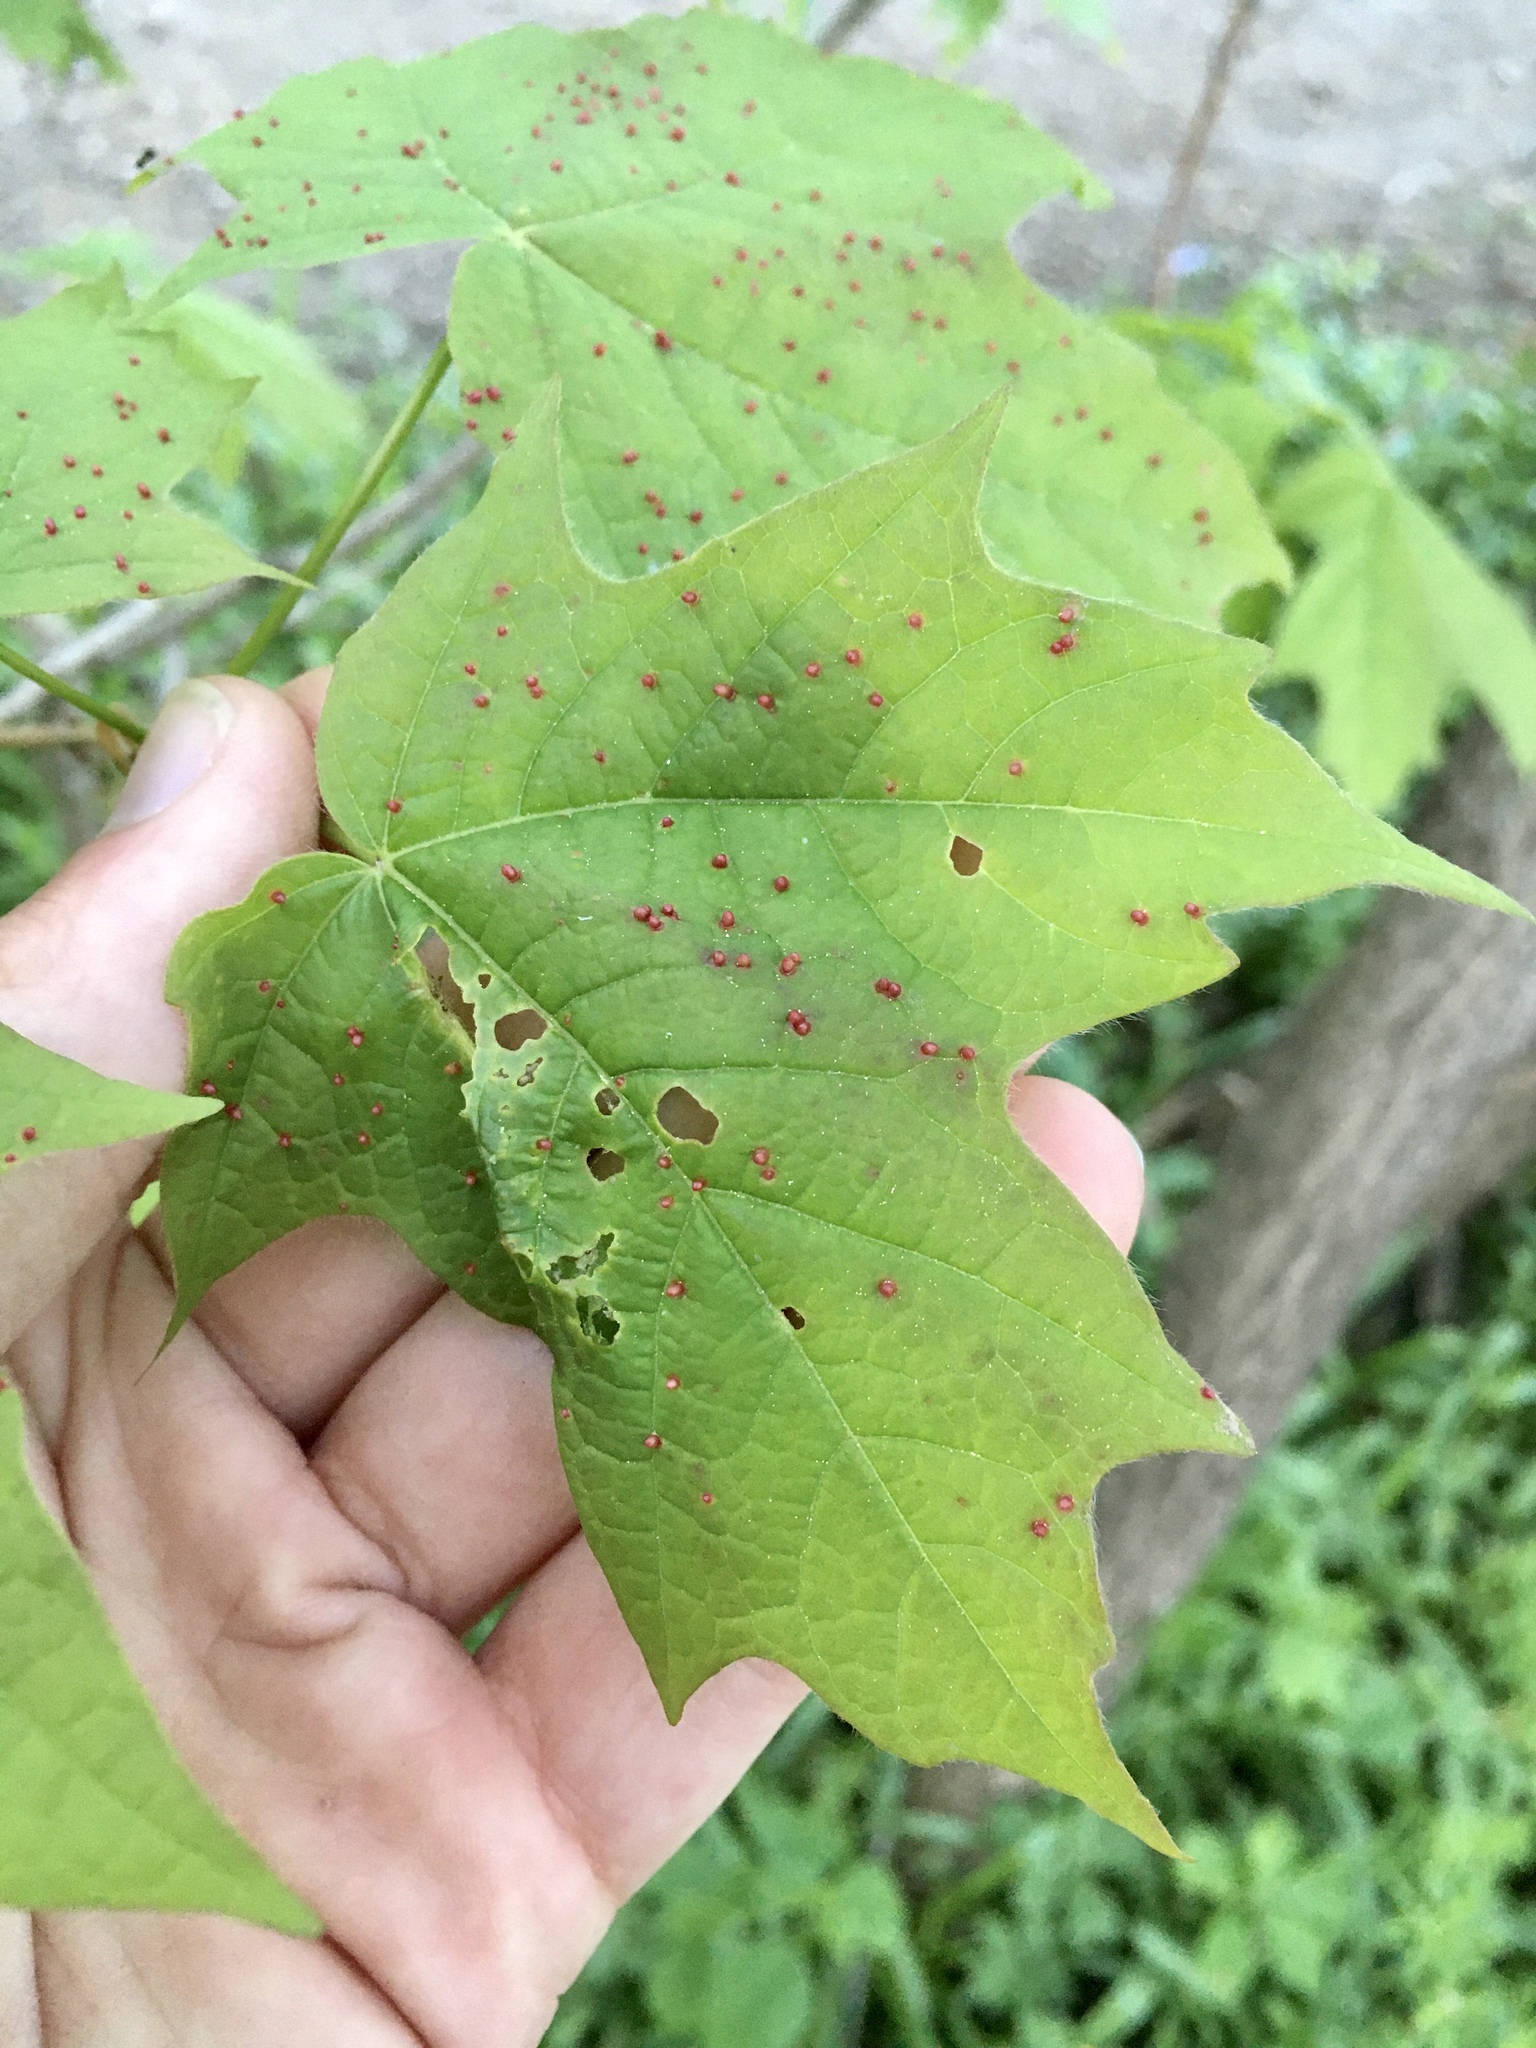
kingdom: Animalia
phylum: Arthropoda
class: Arachnida
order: Trombidiformes
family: Eriophyidae
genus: Vasates
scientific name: Vasates aceriscrumena
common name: Maple spindle gall mite
